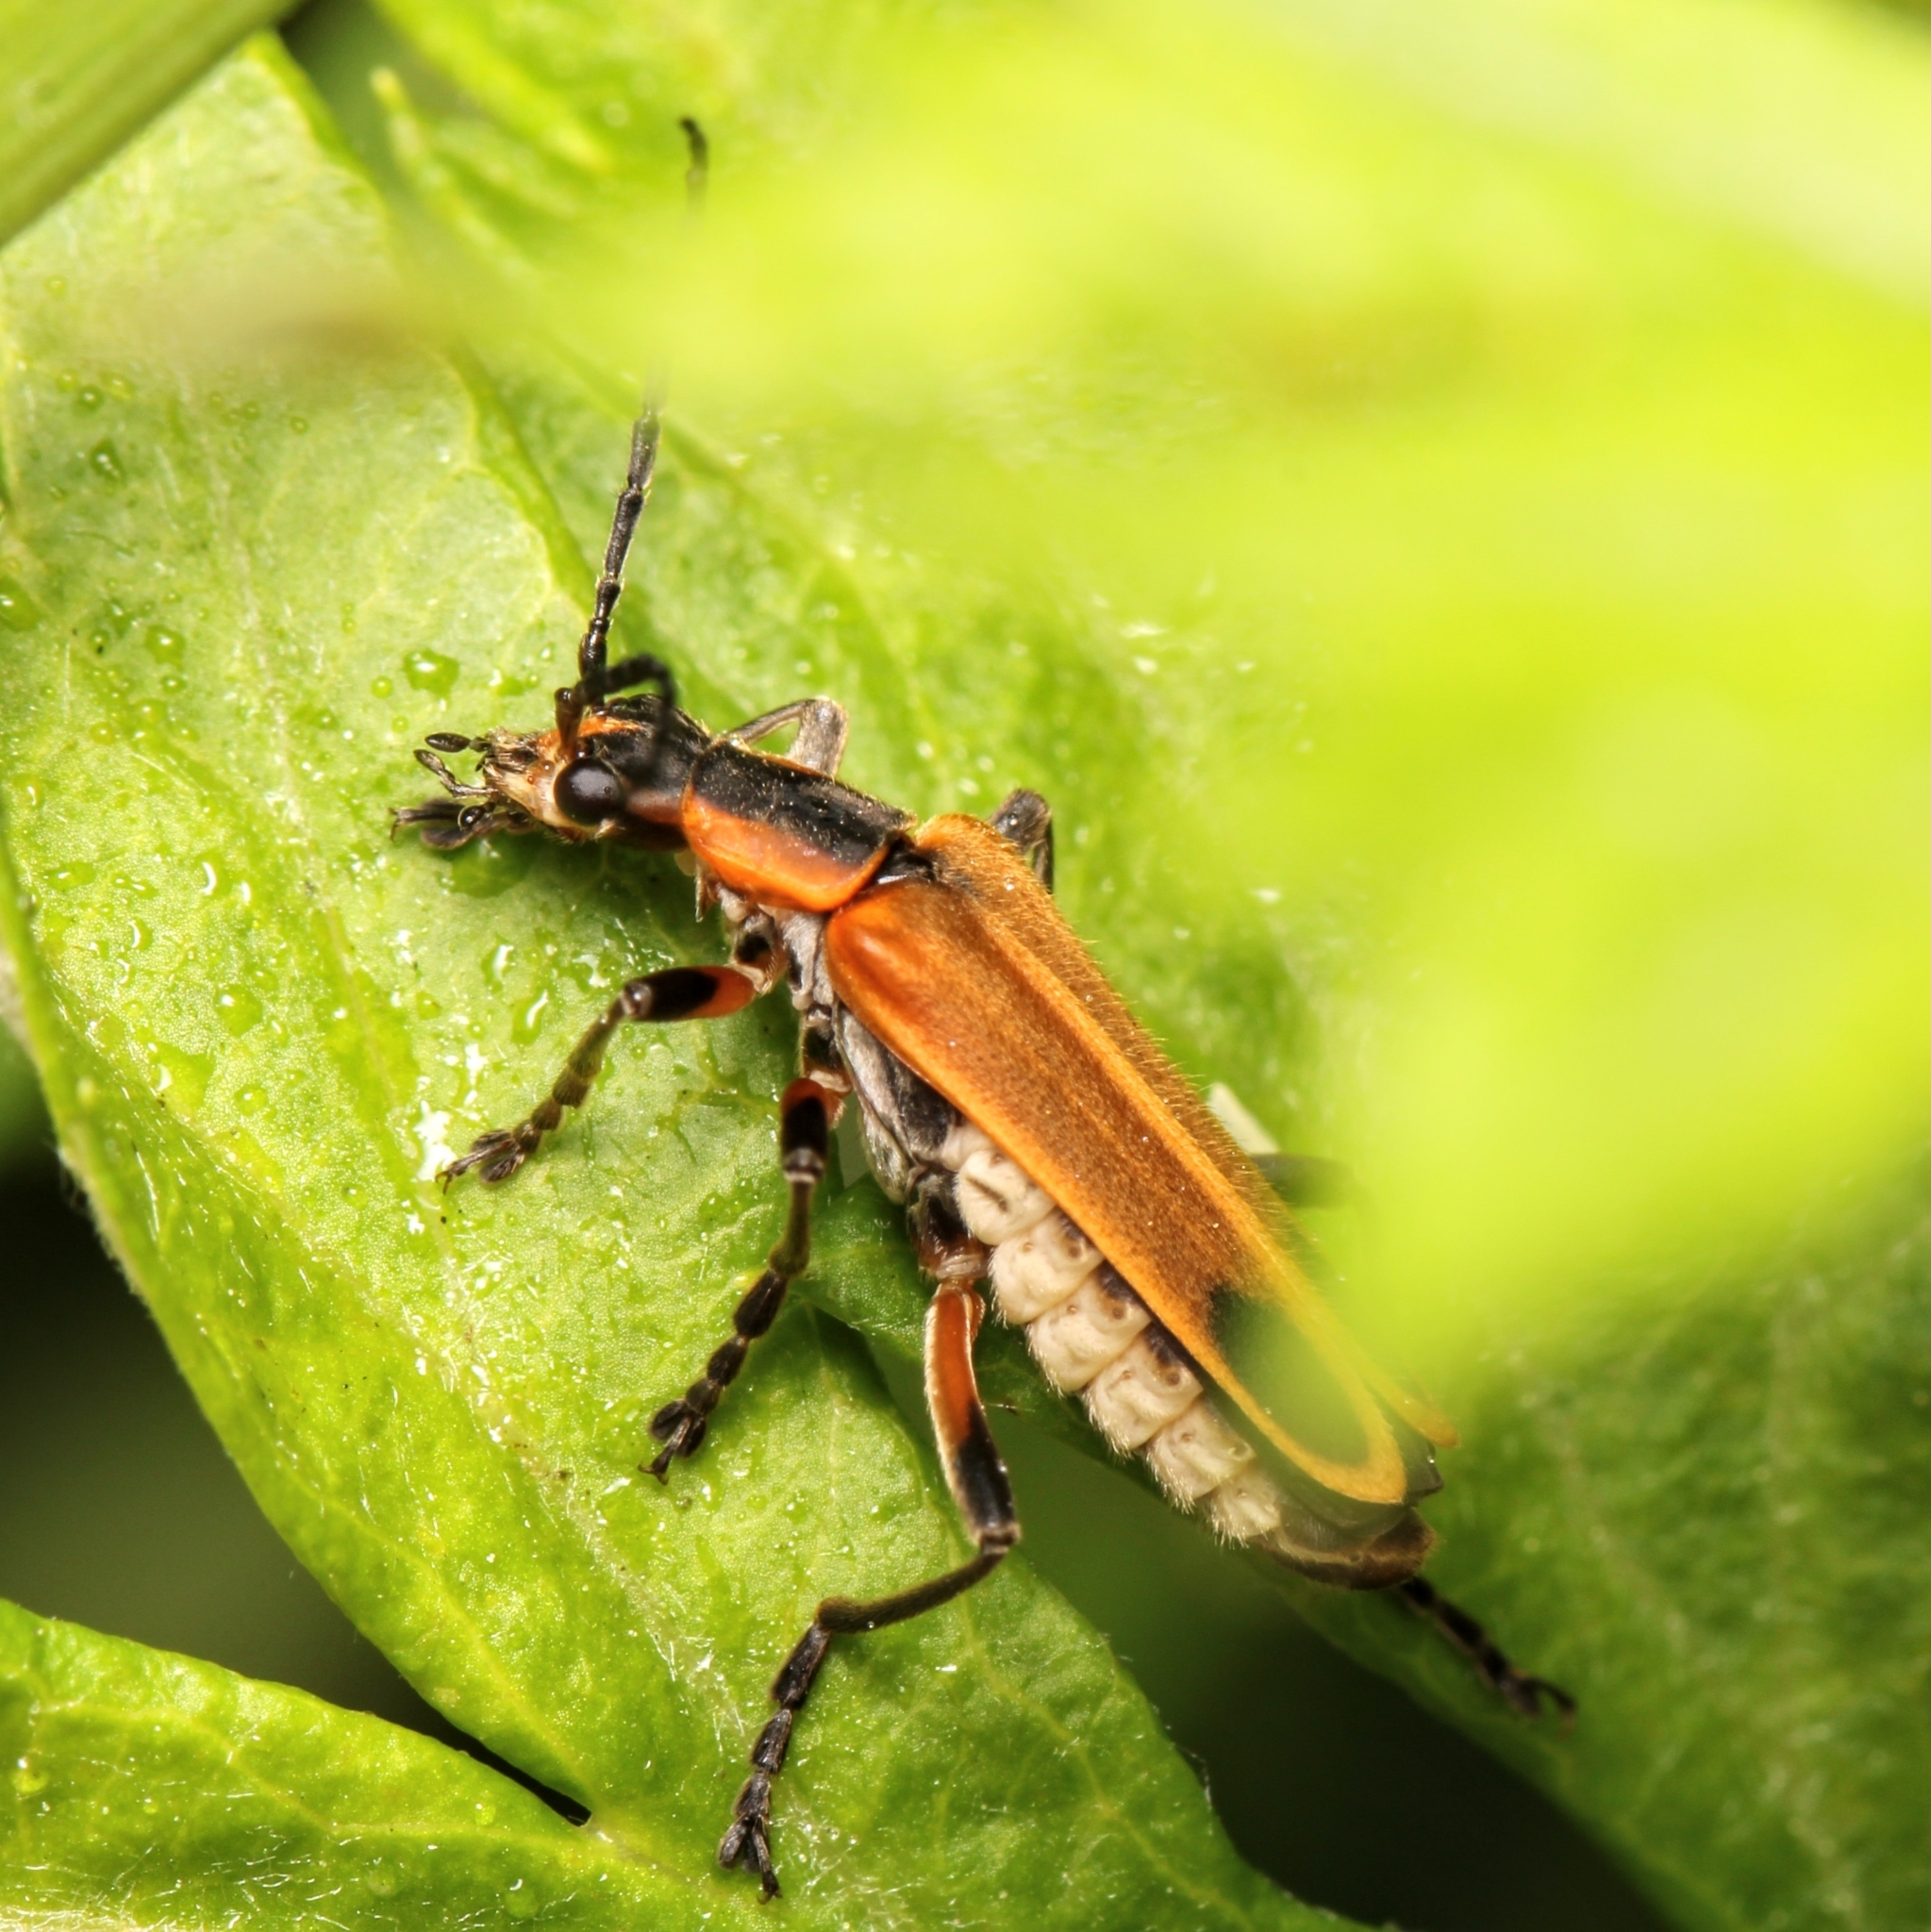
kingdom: Animalia
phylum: Arthropoda
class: Insecta
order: Coleoptera
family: Cantharidae
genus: Chauliognathus
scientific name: Chauliognathus marginatus
